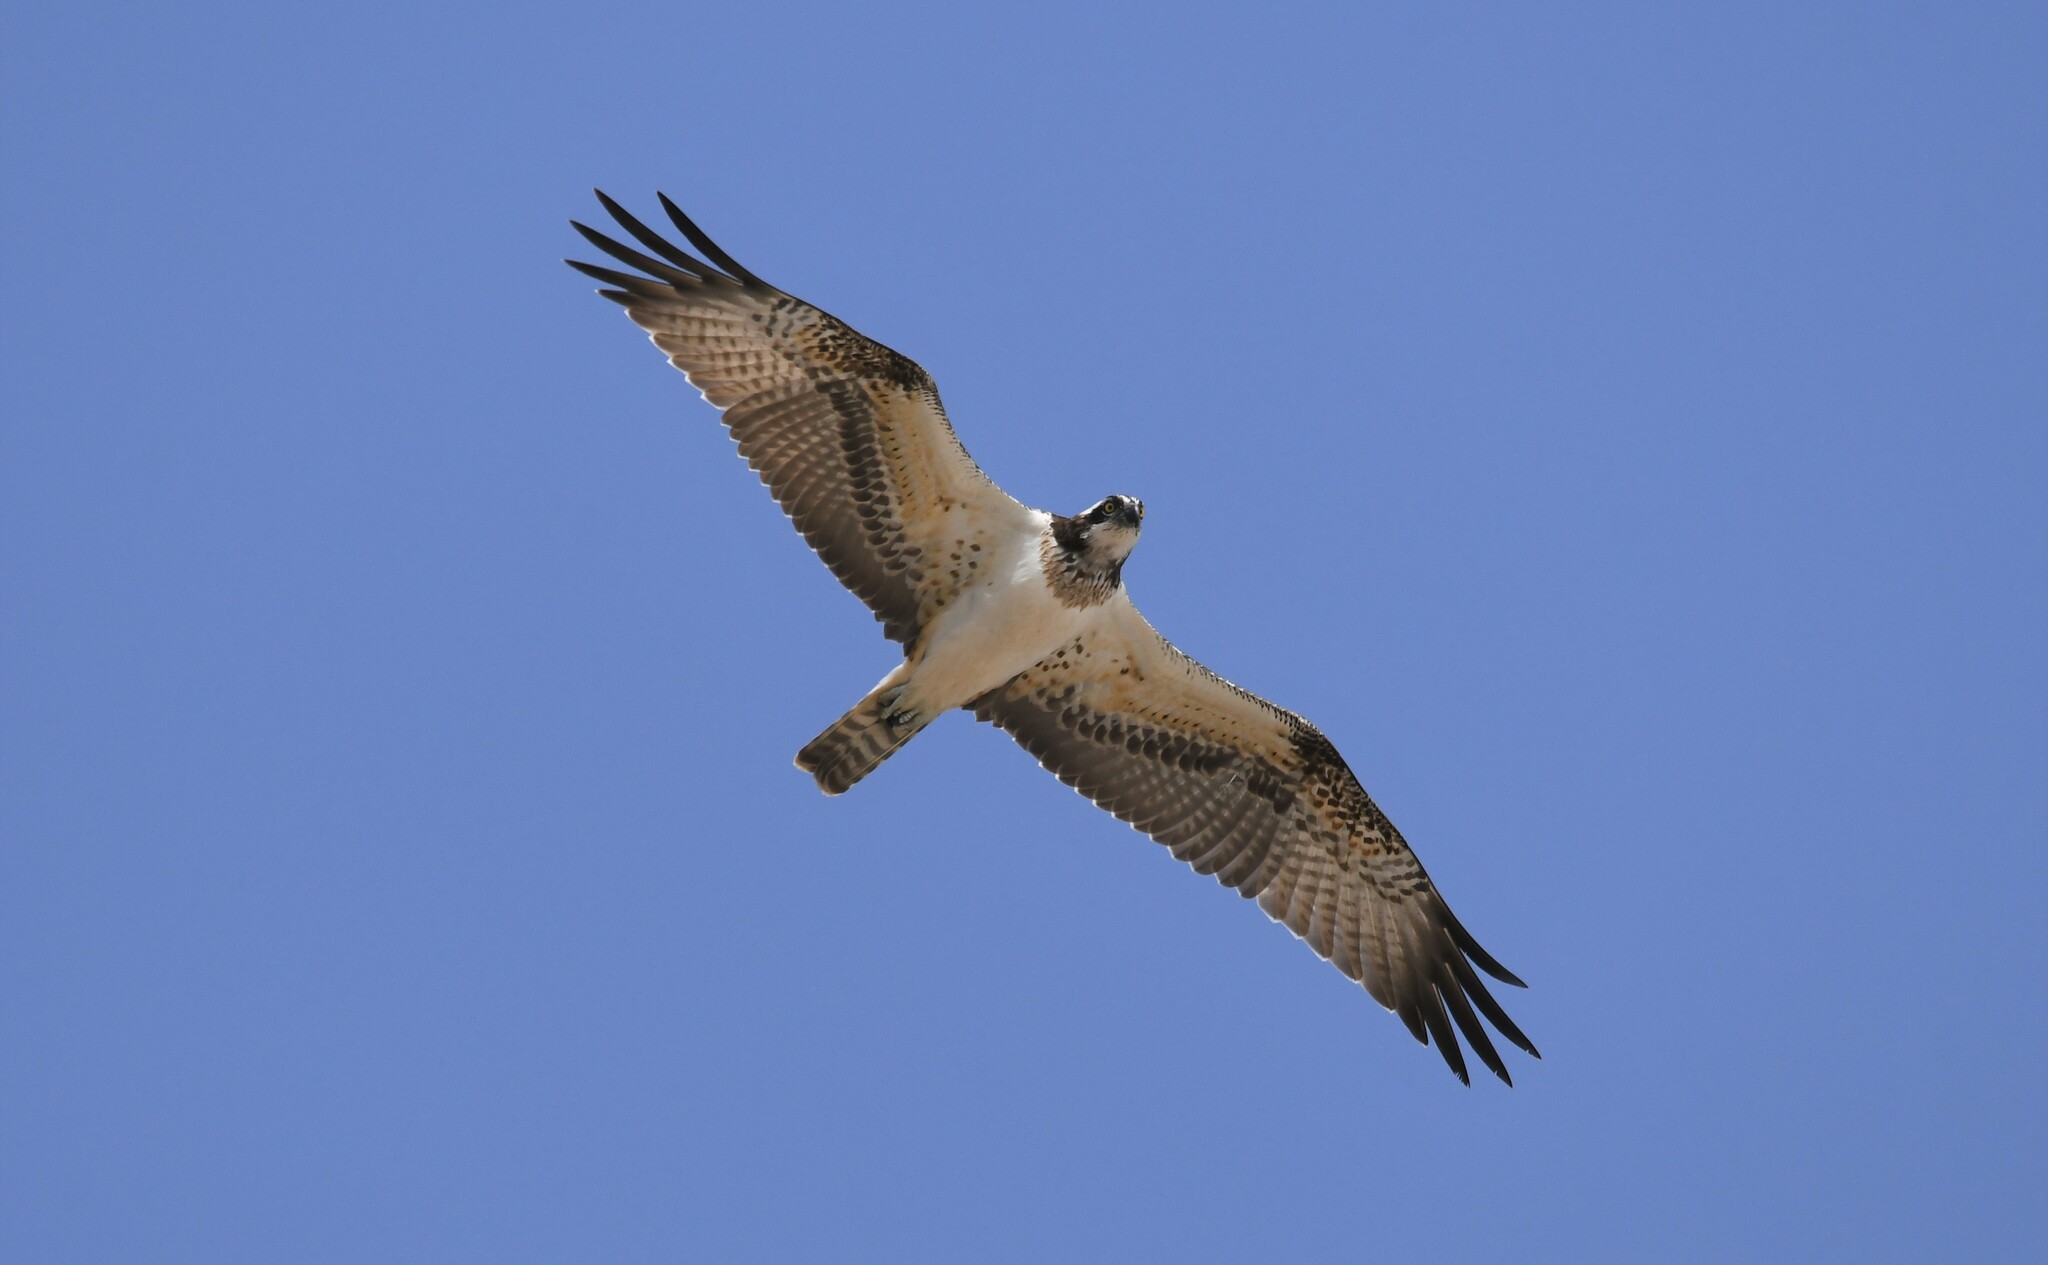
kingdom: Animalia
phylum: Chordata
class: Aves
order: Accipitriformes
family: Pandionidae
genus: Pandion
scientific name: Pandion haliaetus
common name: Osprey
